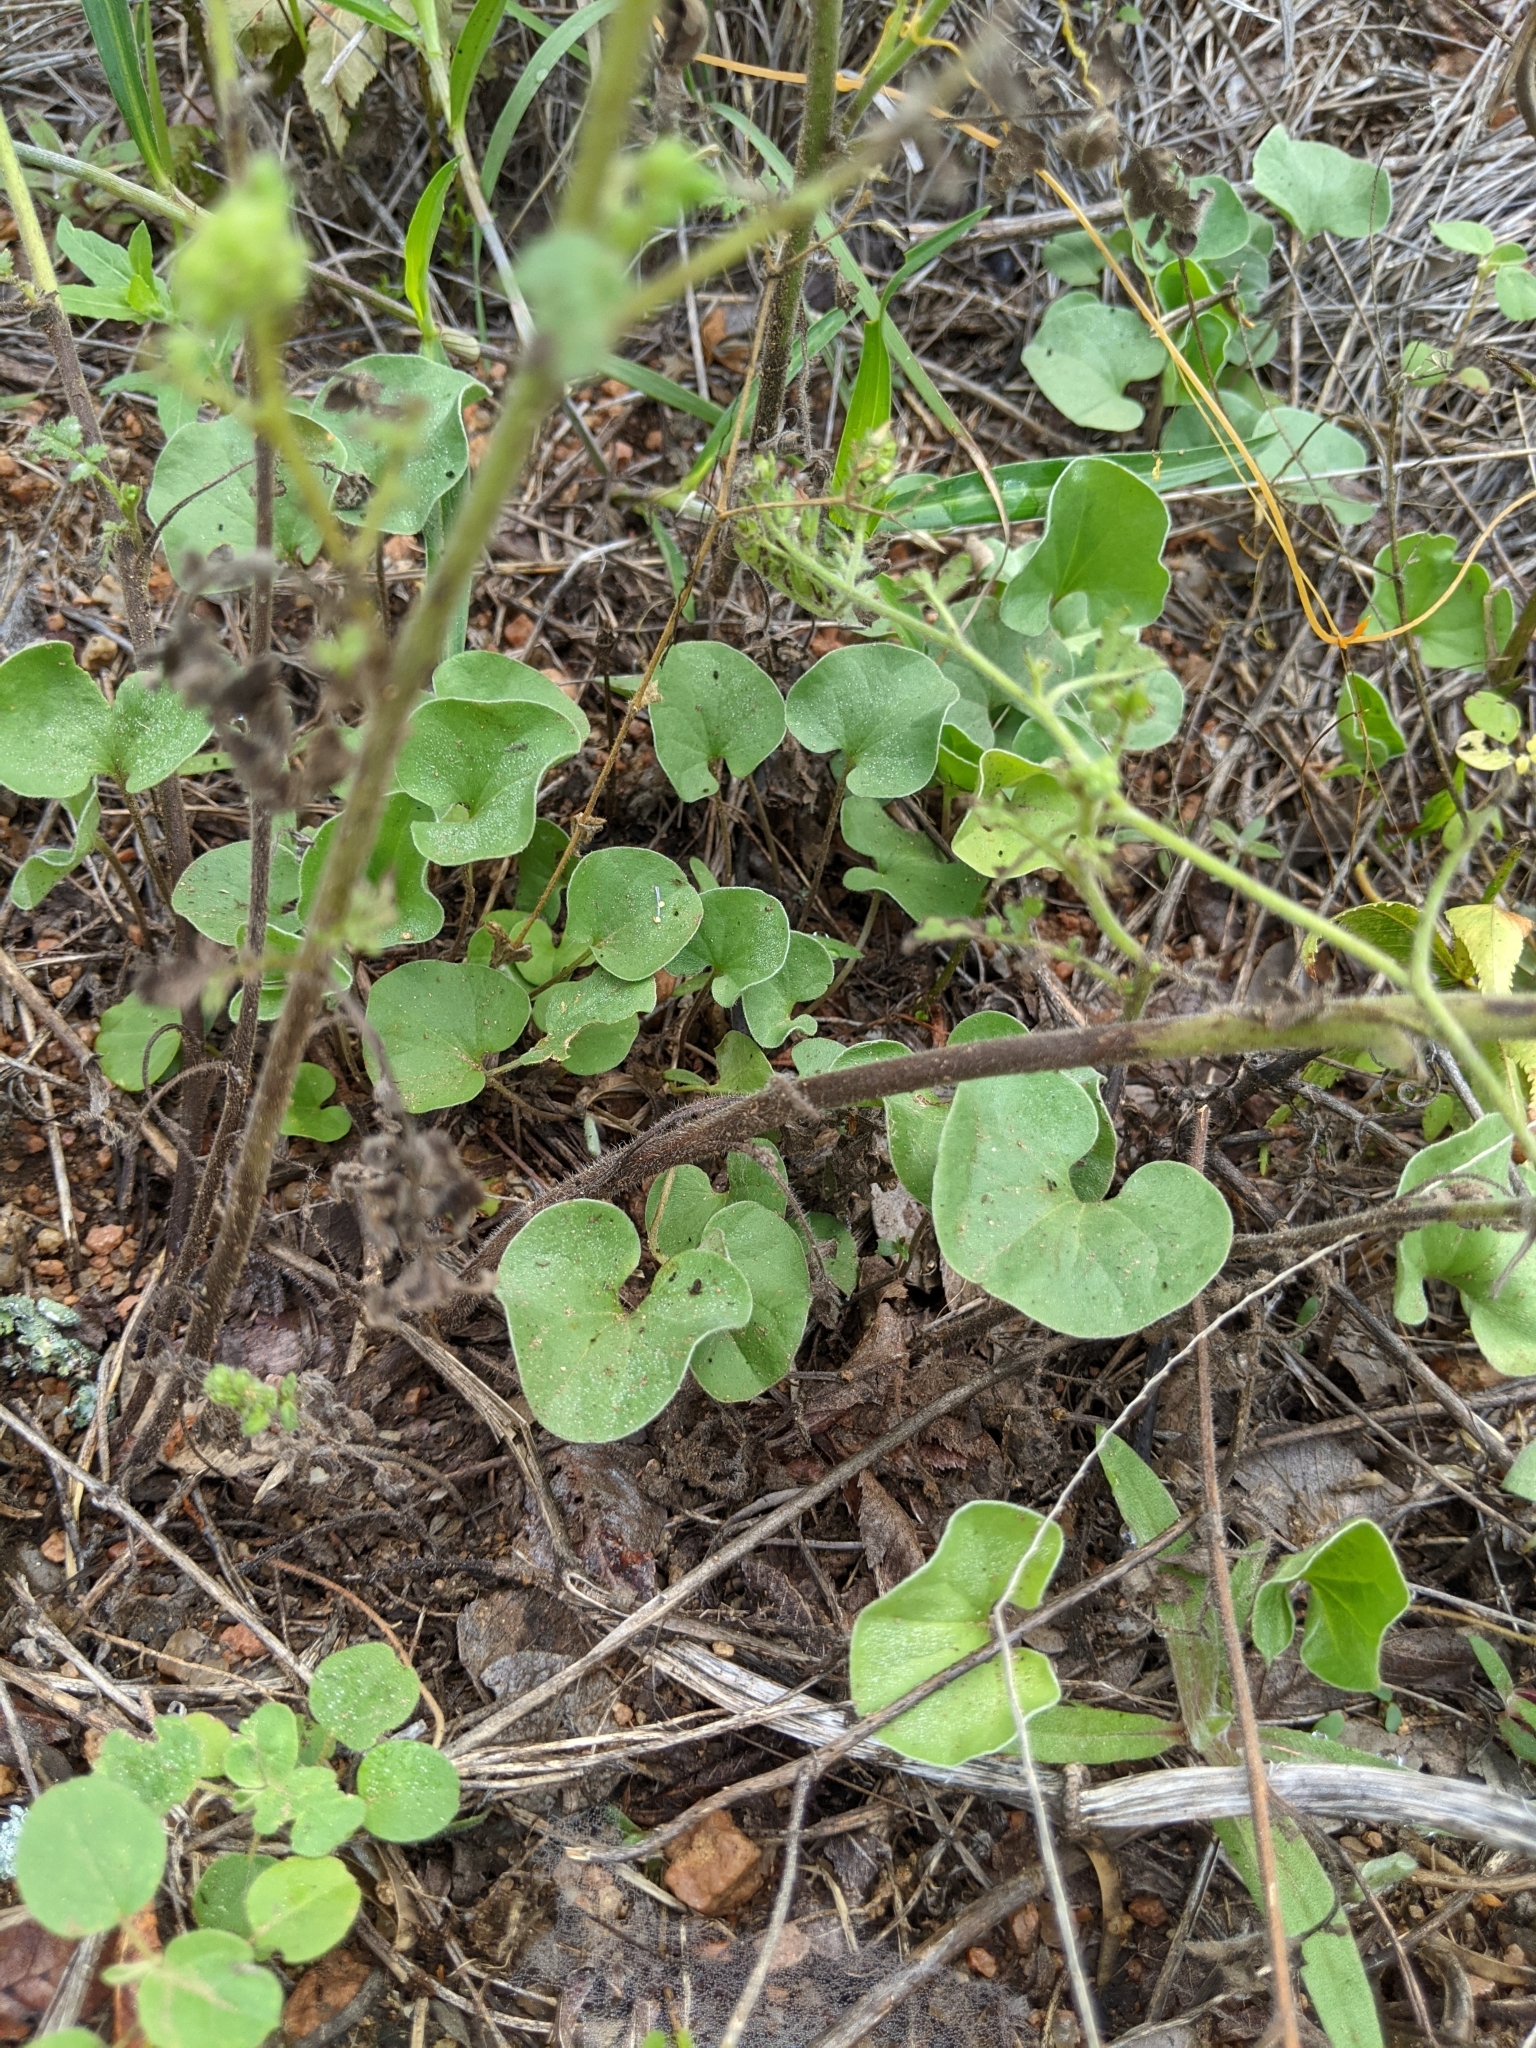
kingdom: Plantae
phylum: Tracheophyta
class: Magnoliopsida
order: Solanales
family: Convolvulaceae
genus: Dichondra
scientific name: Dichondra recurvata
